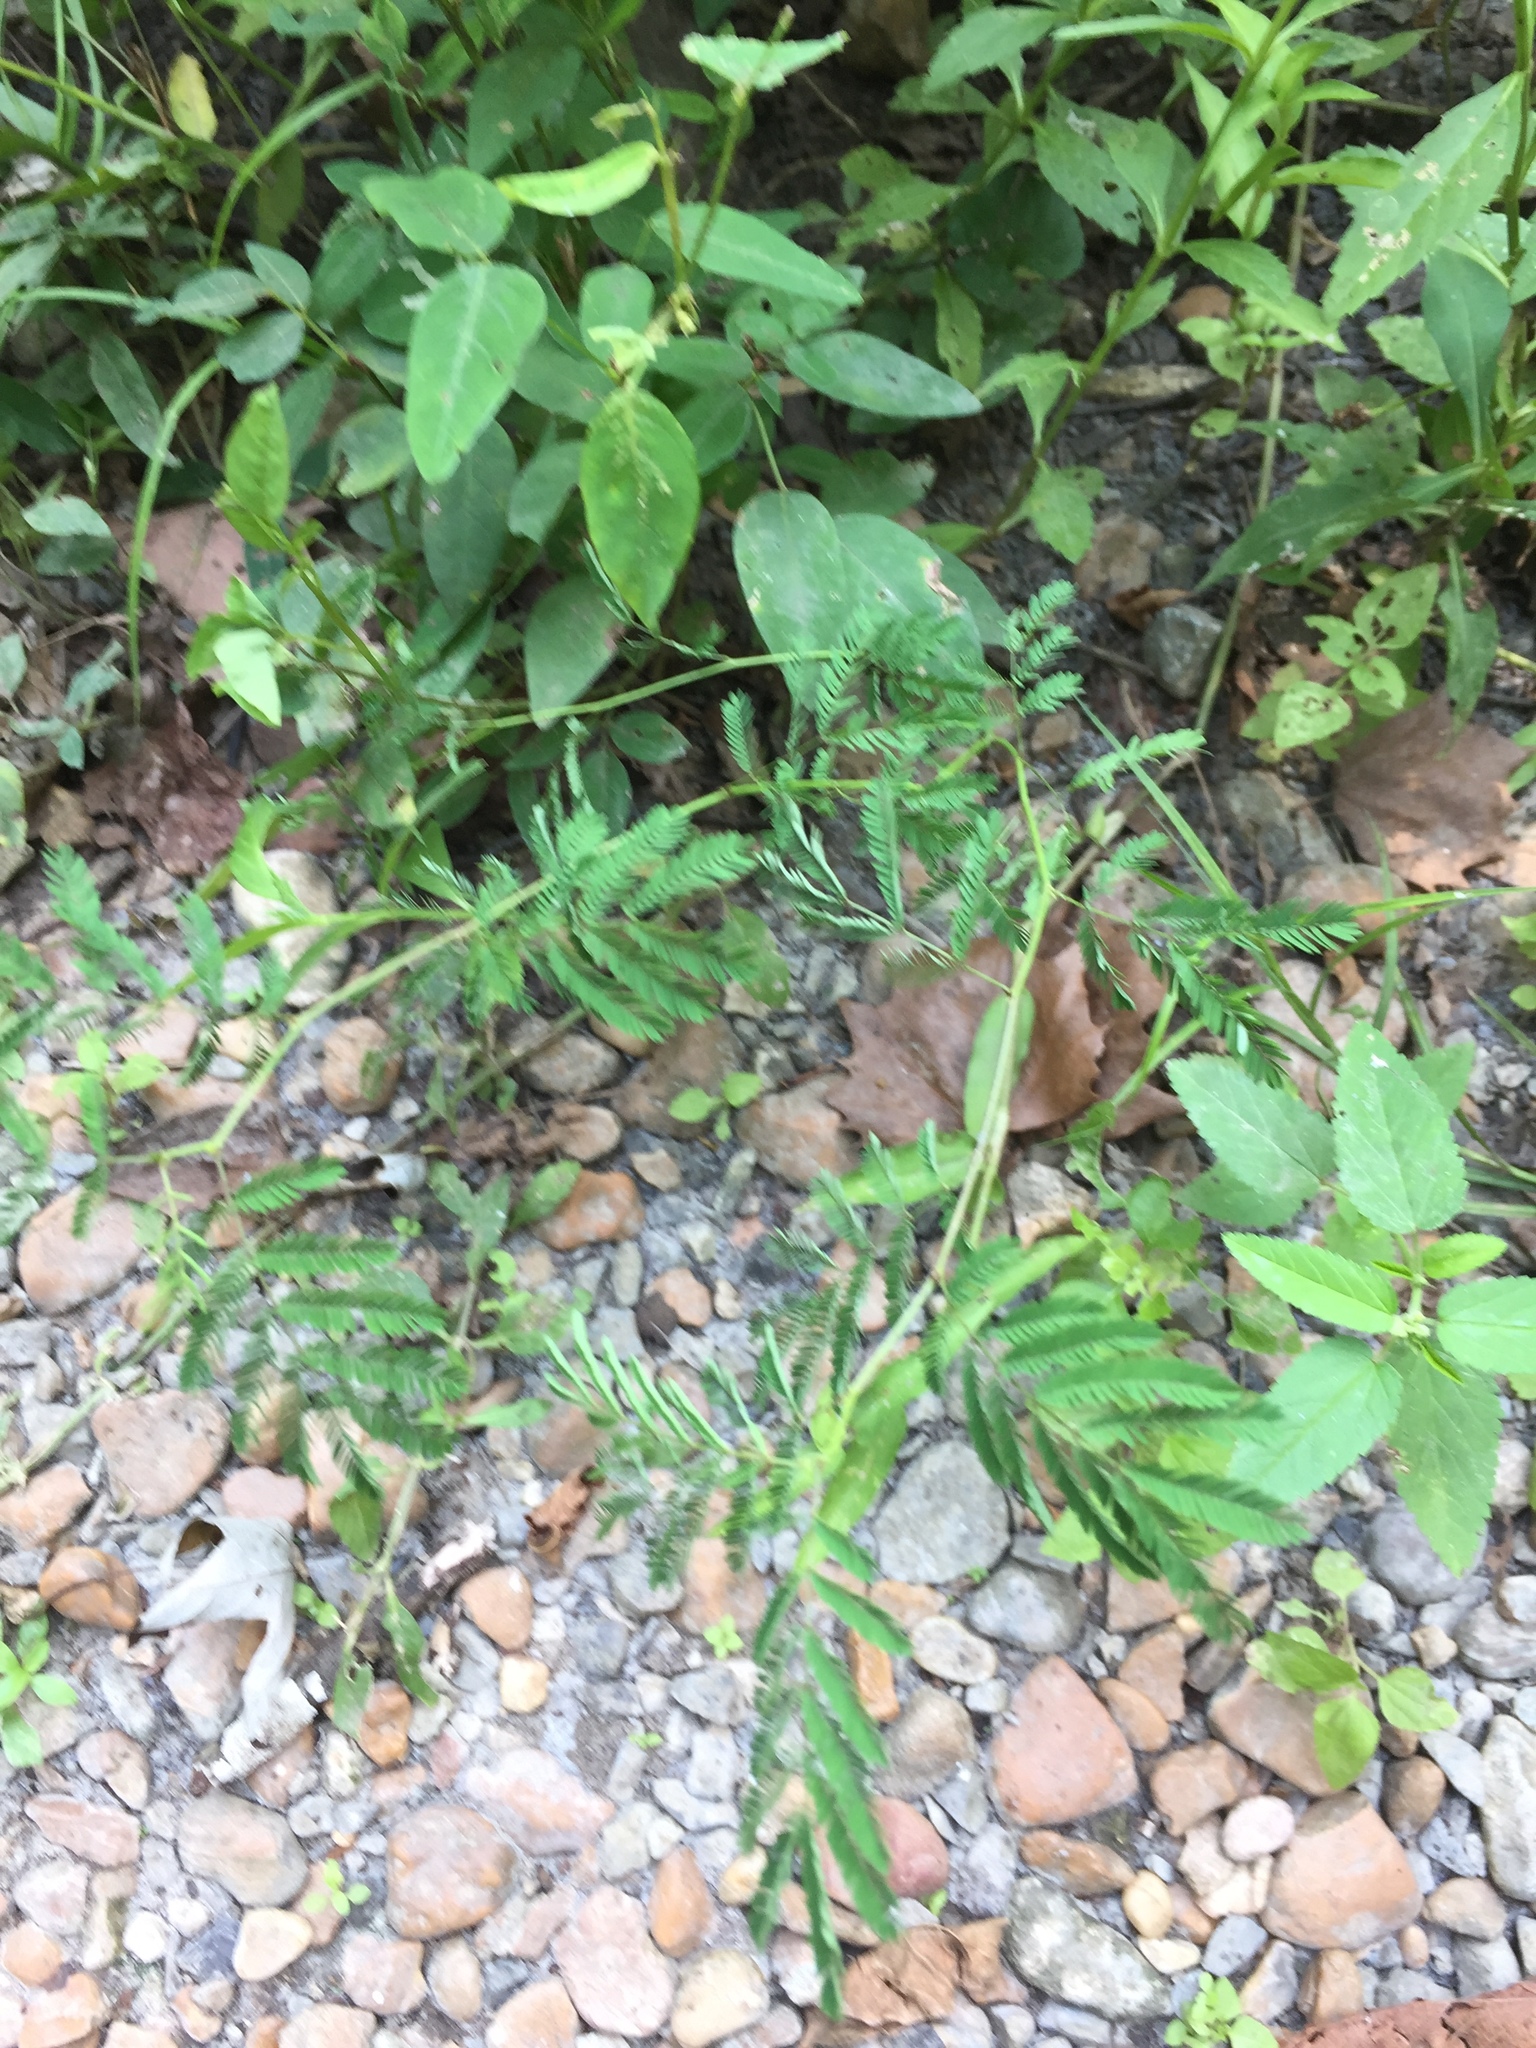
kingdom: Plantae
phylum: Tracheophyta
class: Magnoliopsida
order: Fabales
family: Fabaceae
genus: Desmanthus
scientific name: Desmanthus illinoensis
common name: Illinois bundle-flower
